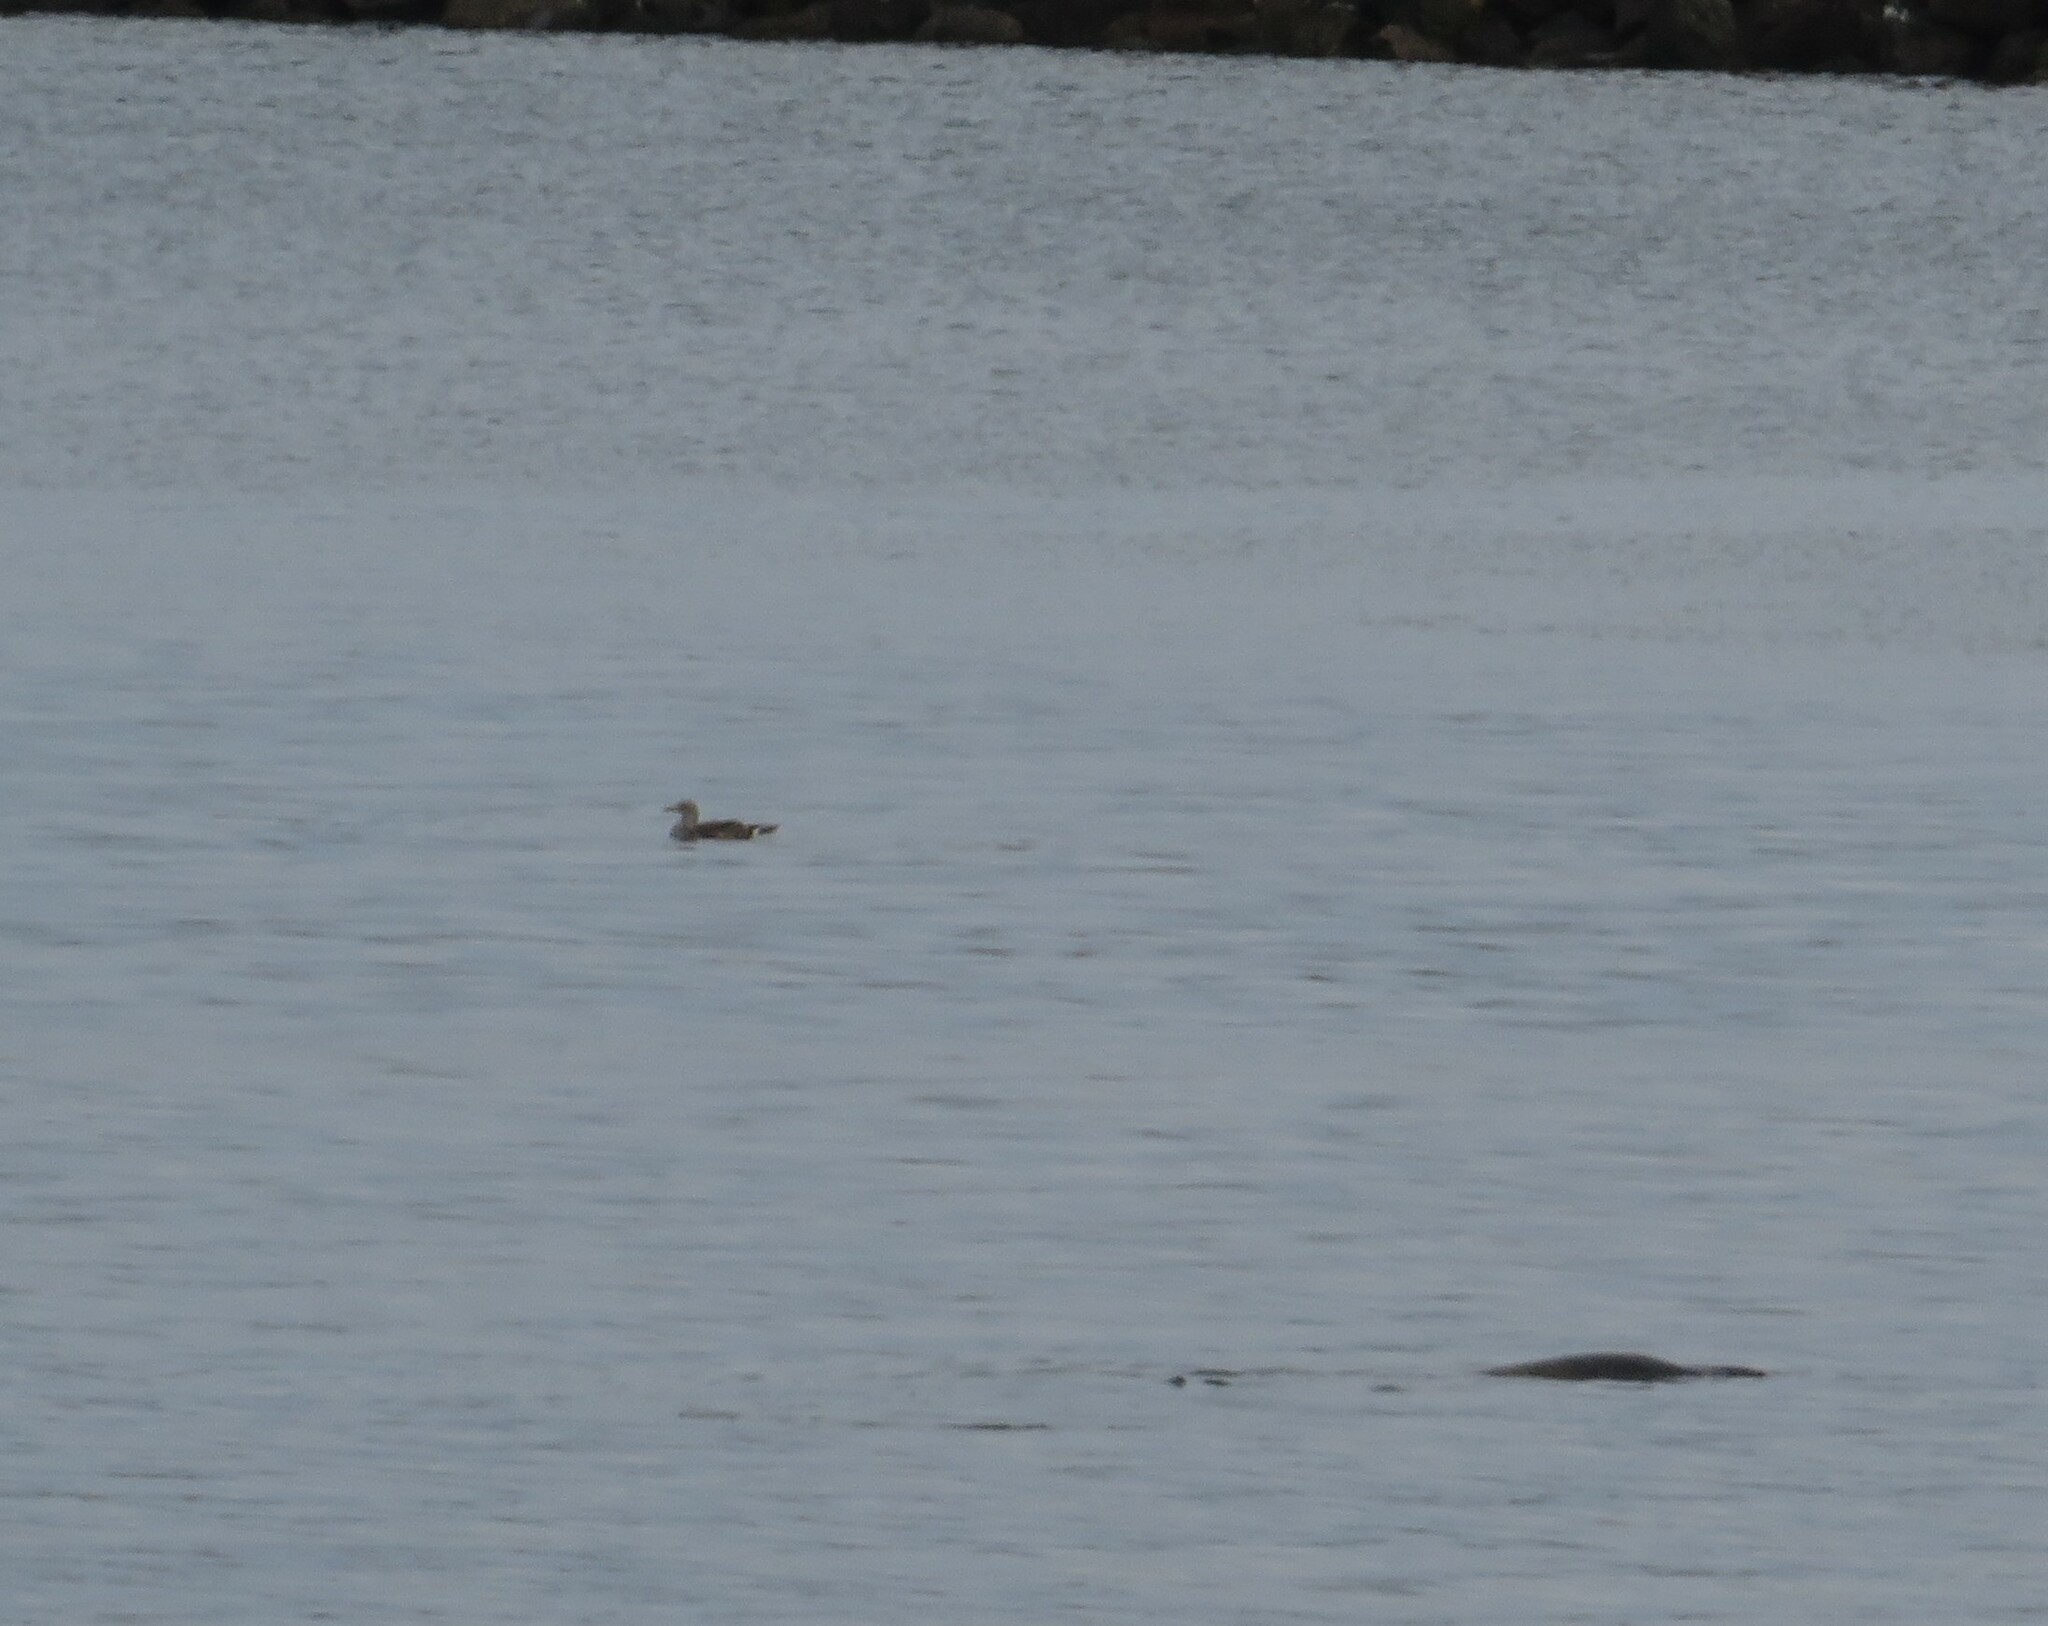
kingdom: Animalia
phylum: Chordata
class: Aves
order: Suliformes
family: Sulidae
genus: Morus
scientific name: Morus bassanus
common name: Northern gannet
